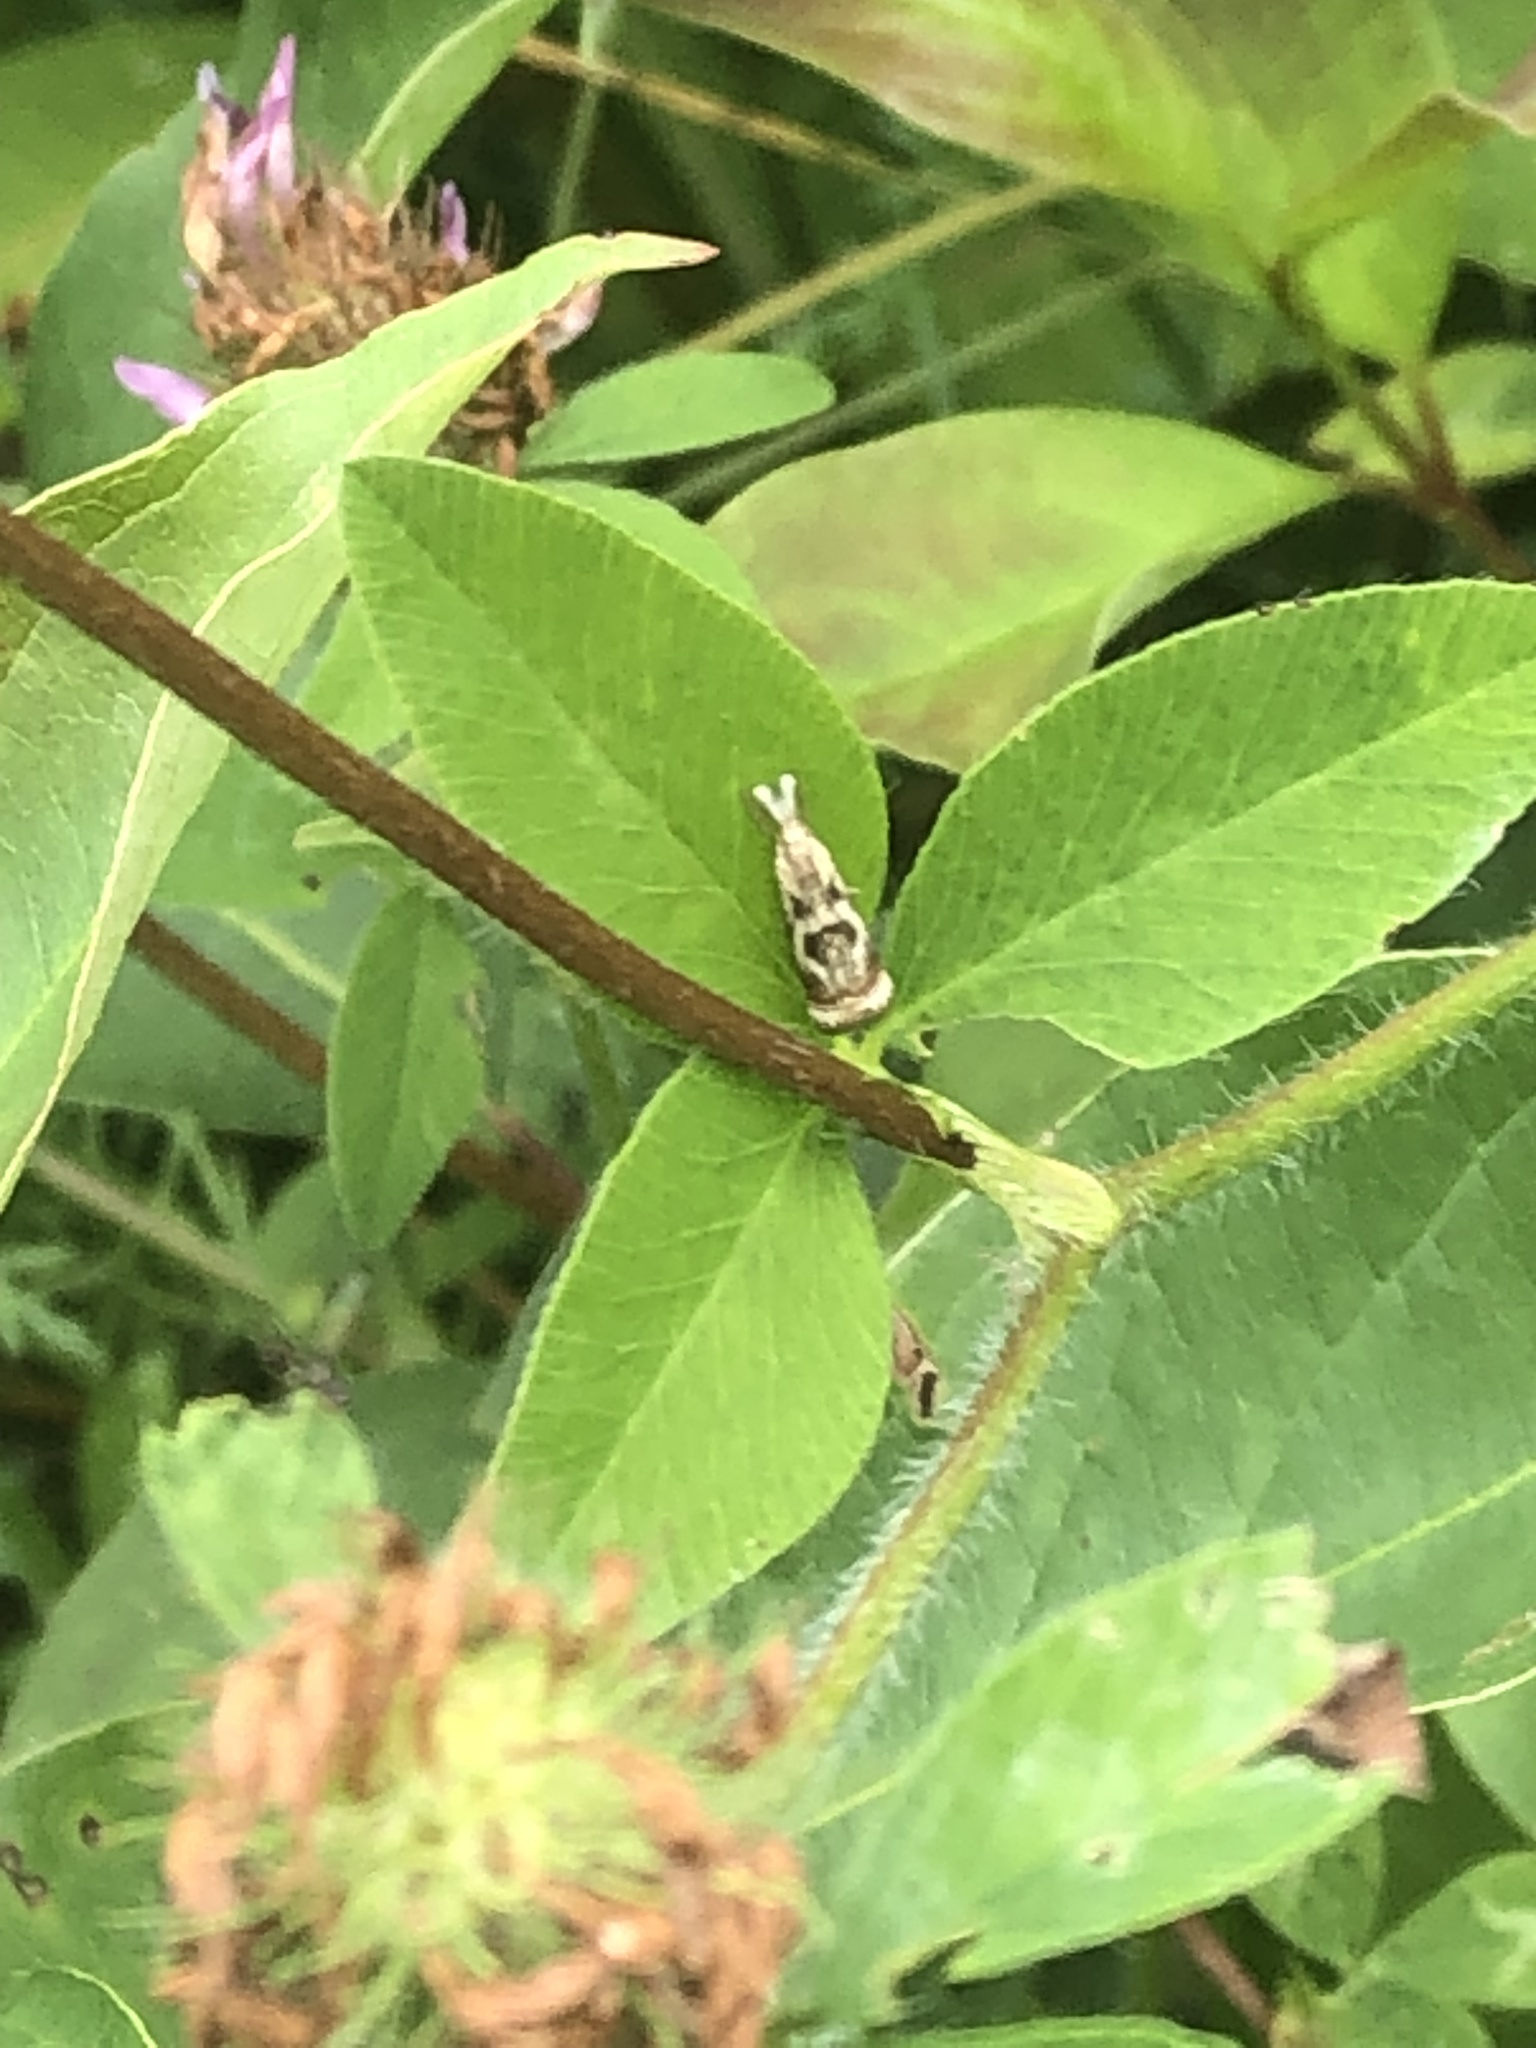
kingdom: Animalia
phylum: Arthropoda
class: Insecta
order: Lepidoptera
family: Crambidae
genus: Microcrambus
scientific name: Microcrambus elegans
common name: Elegant grass-veneer
